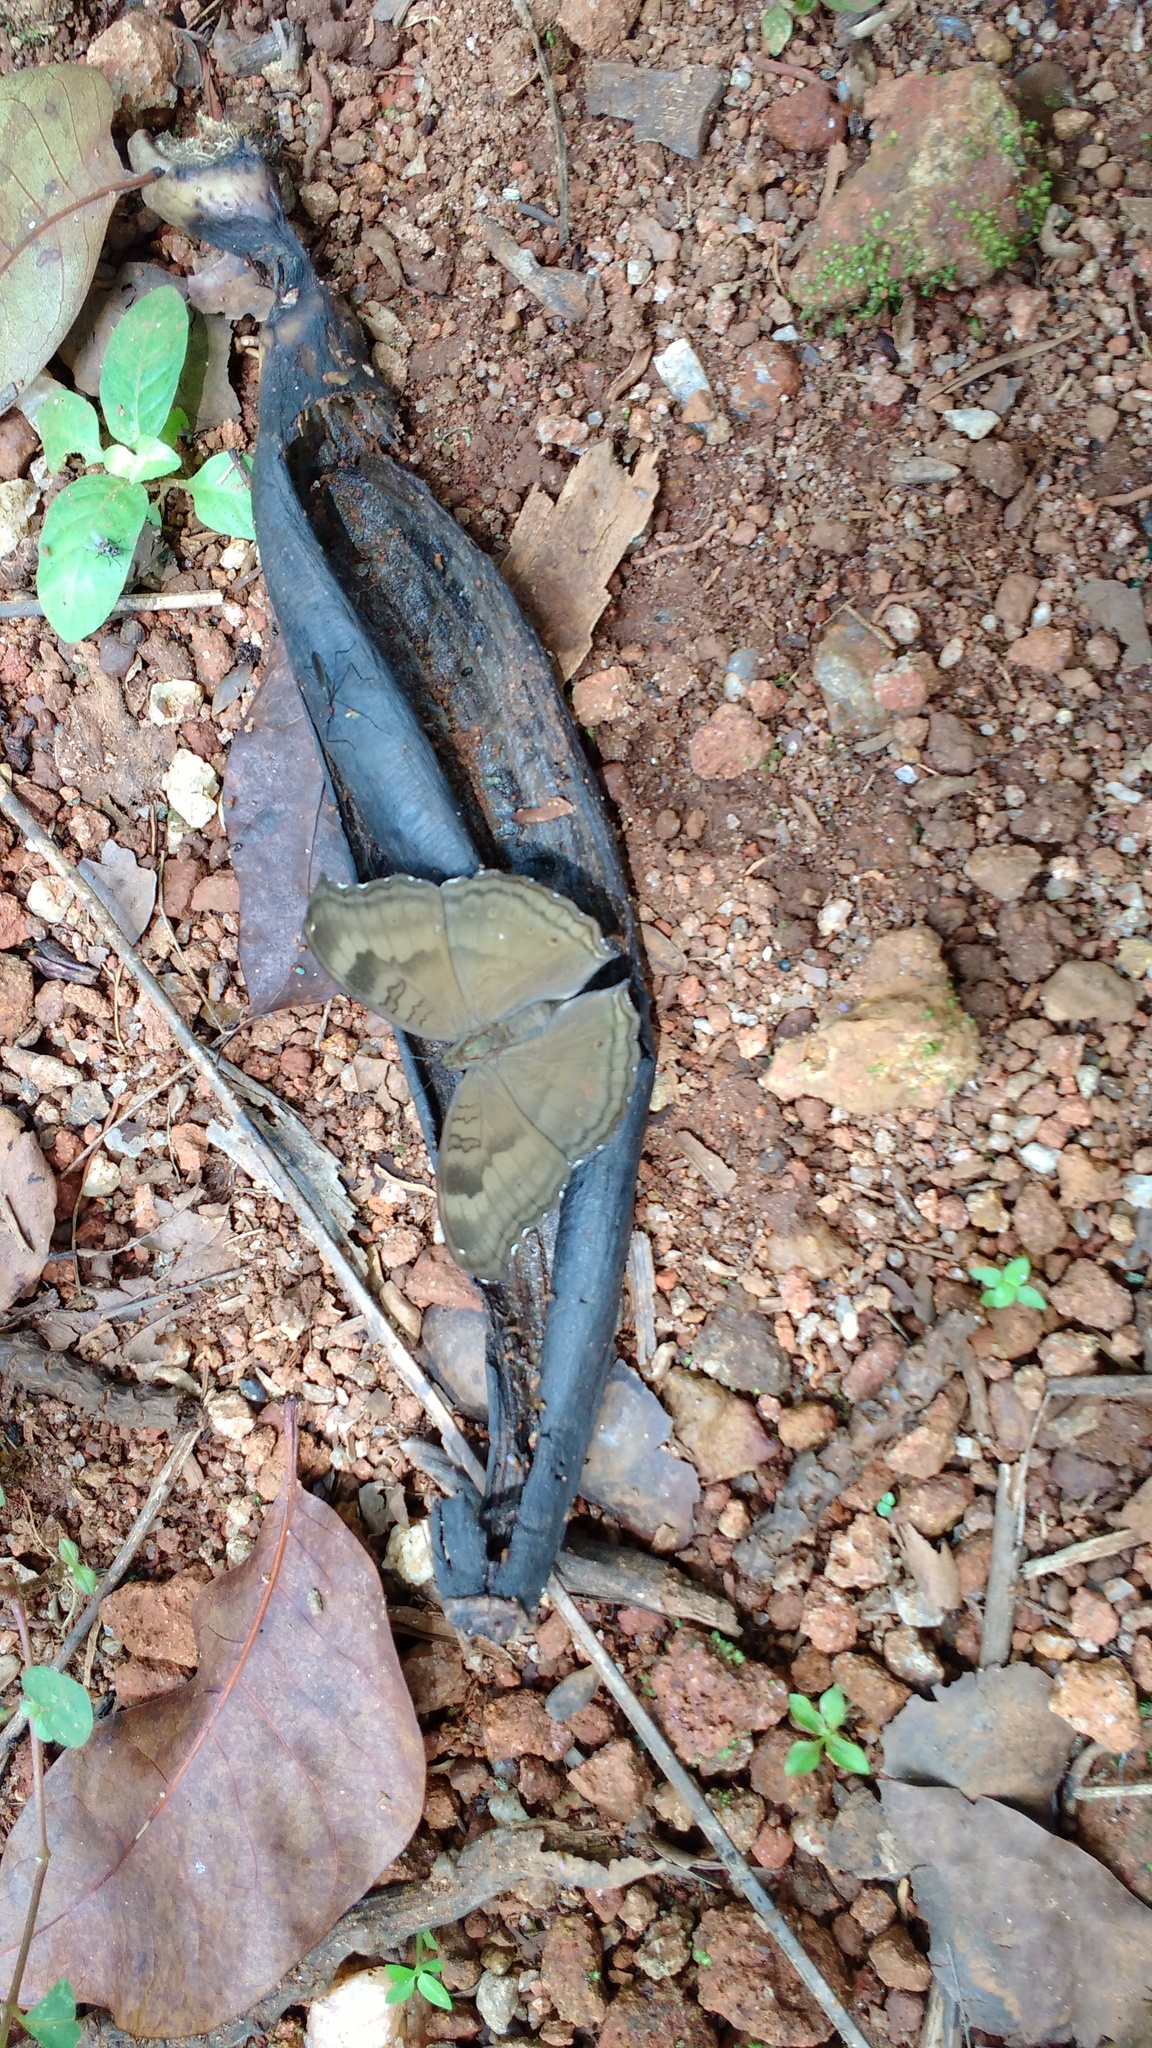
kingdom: Animalia
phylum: Arthropoda
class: Insecta
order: Lepidoptera
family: Nymphalidae
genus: Junonia
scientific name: Junonia iphita
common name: Chocolate pansy
